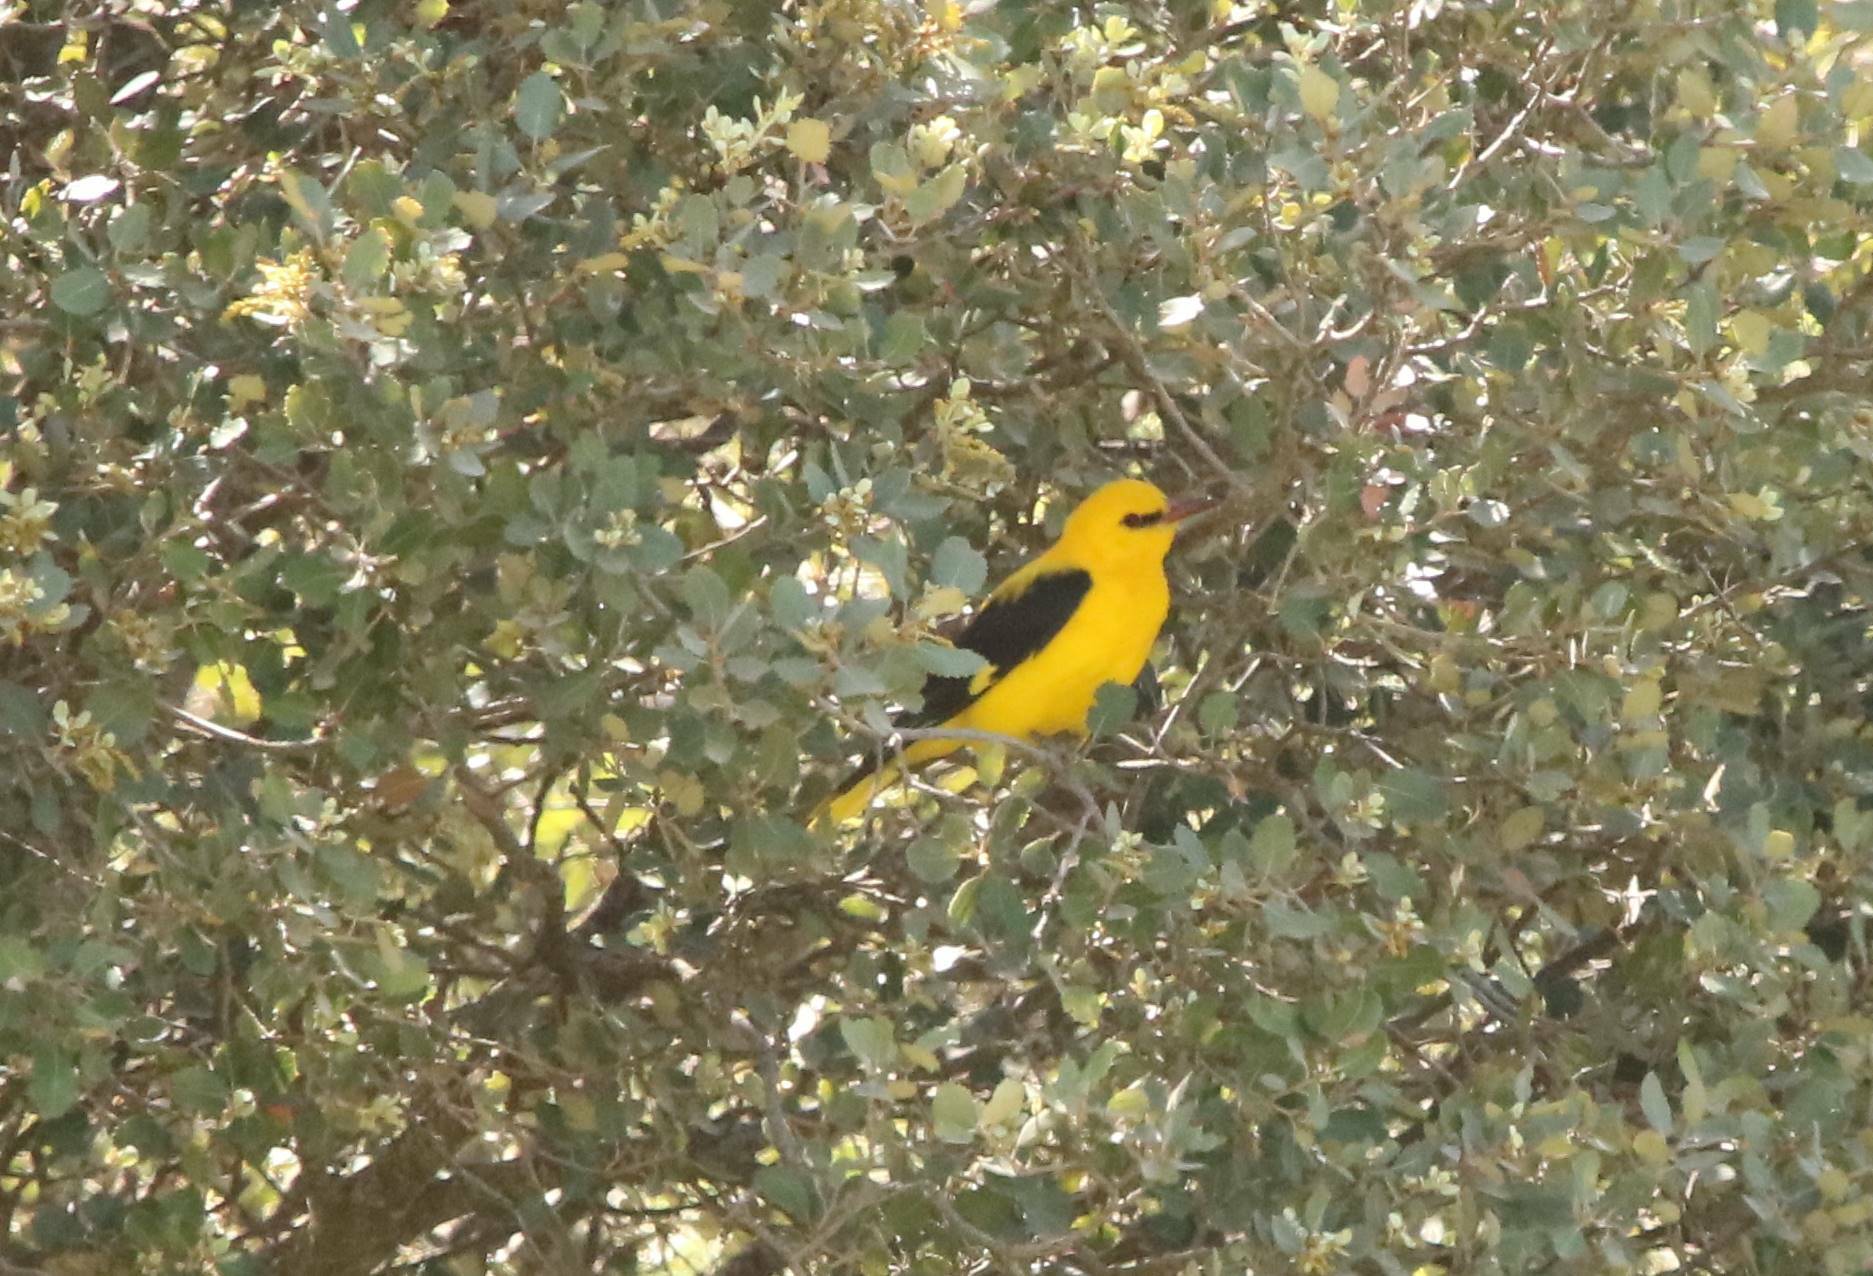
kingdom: Animalia
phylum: Chordata
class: Aves
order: Passeriformes
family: Oriolidae
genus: Oriolus
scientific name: Oriolus oriolus
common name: Eurasian golden oriole
